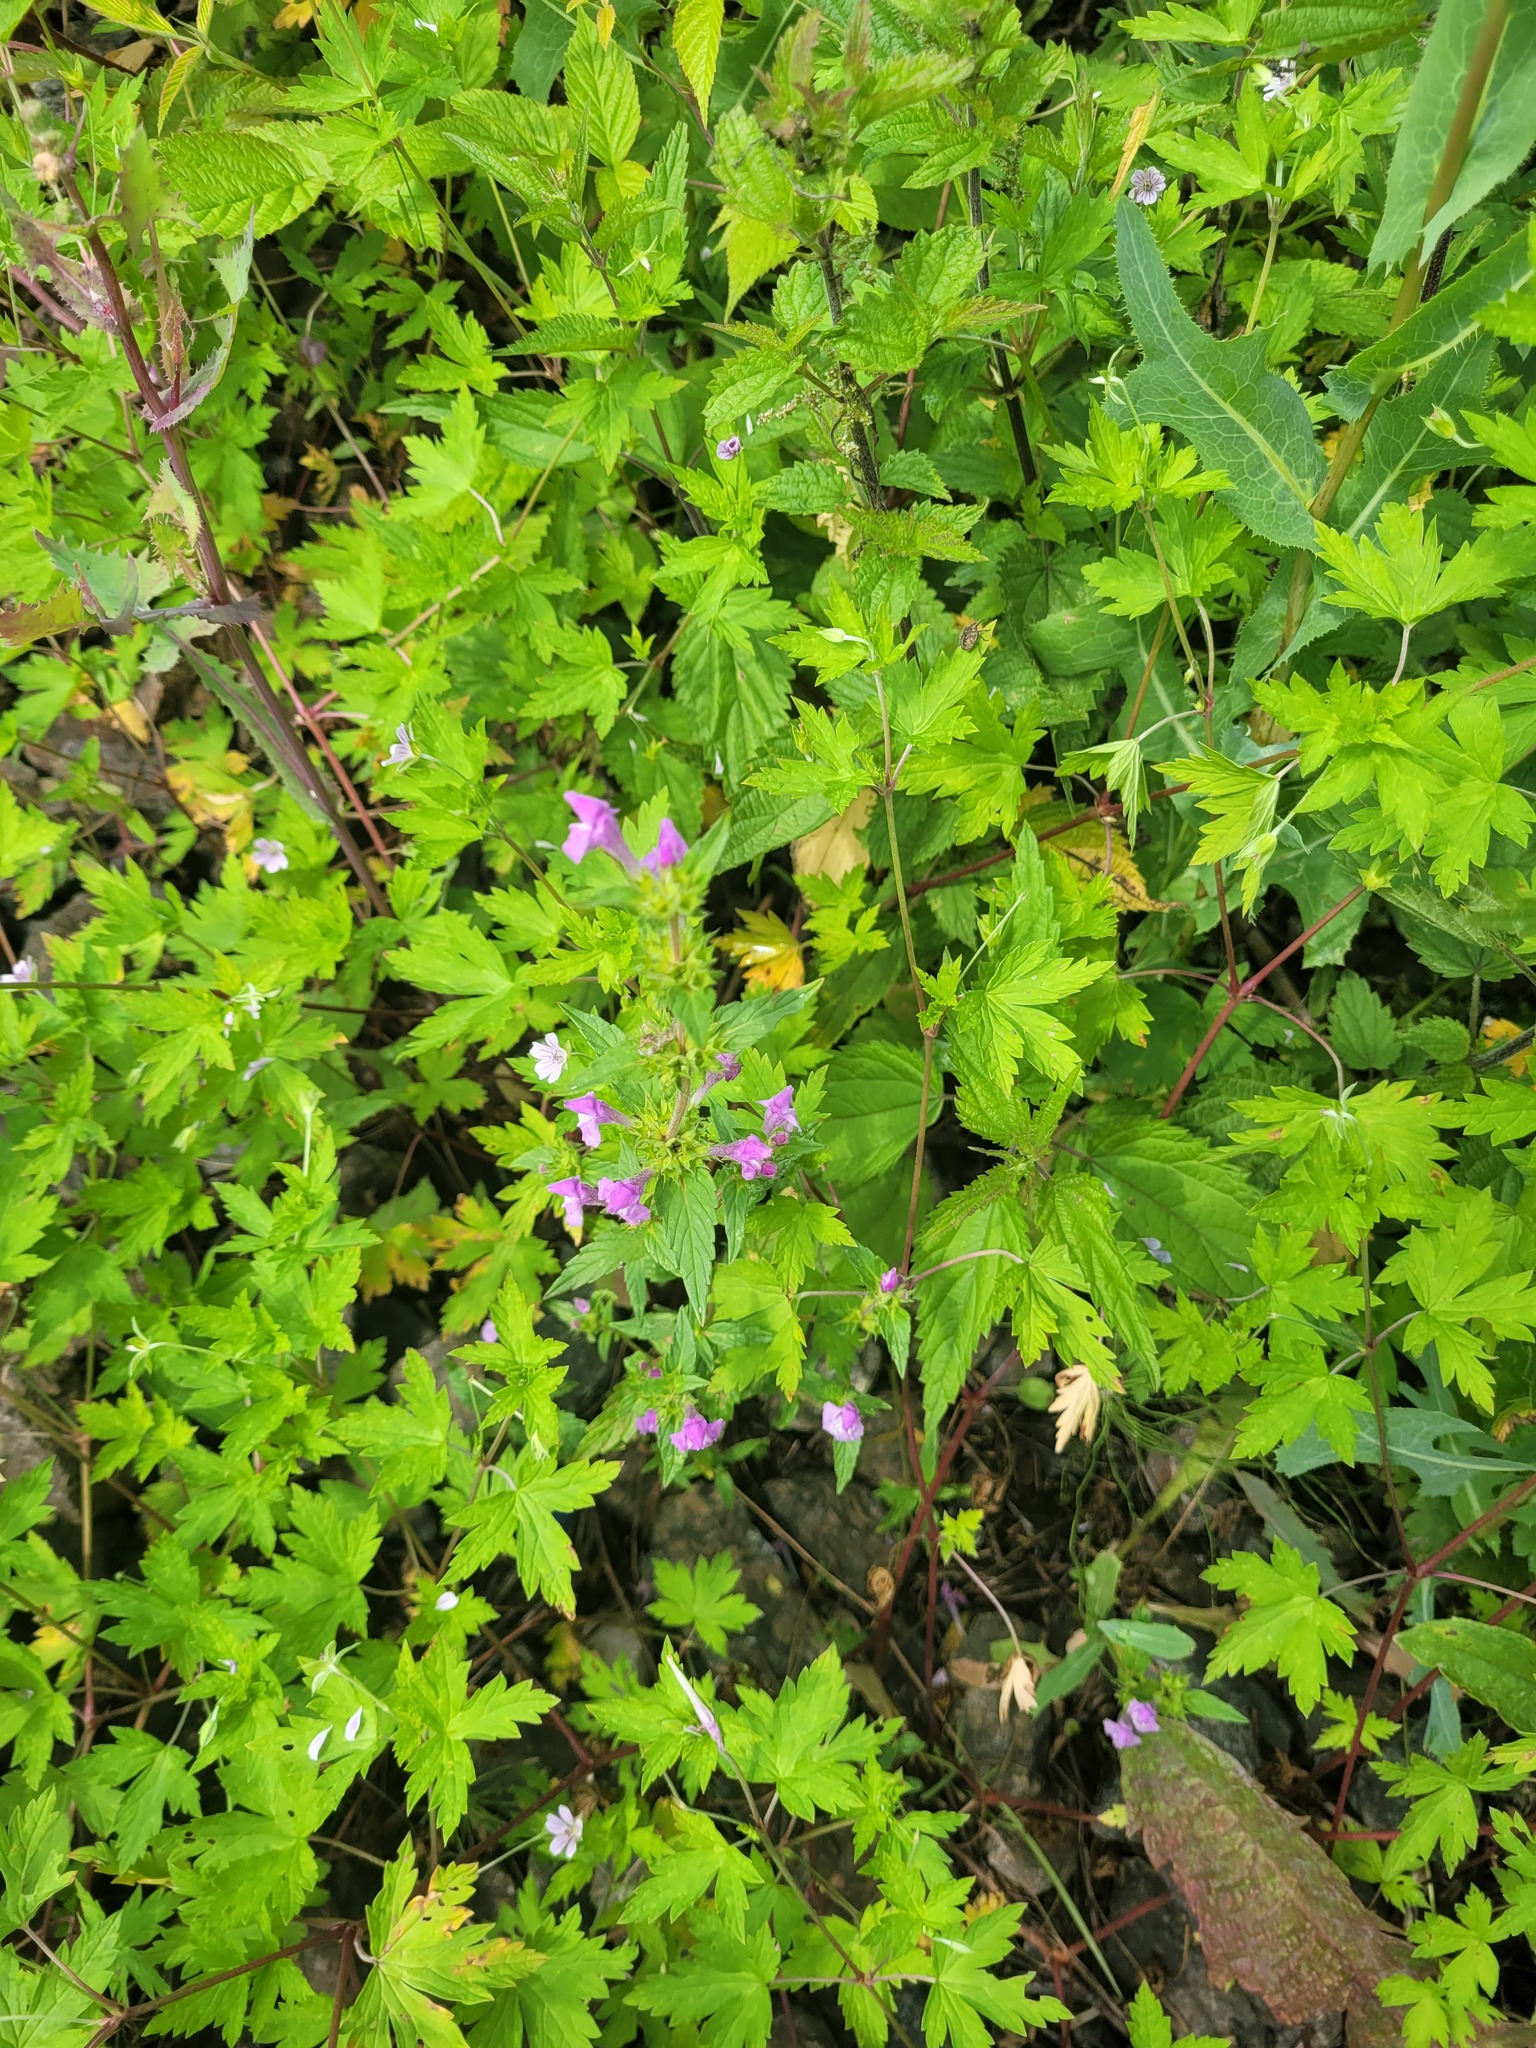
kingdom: Plantae
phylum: Tracheophyta
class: Magnoliopsida
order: Lamiales
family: Lamiaceae
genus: Galeopsis
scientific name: Galeopsis ladanum
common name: Broad-leaved hemp-nettle
